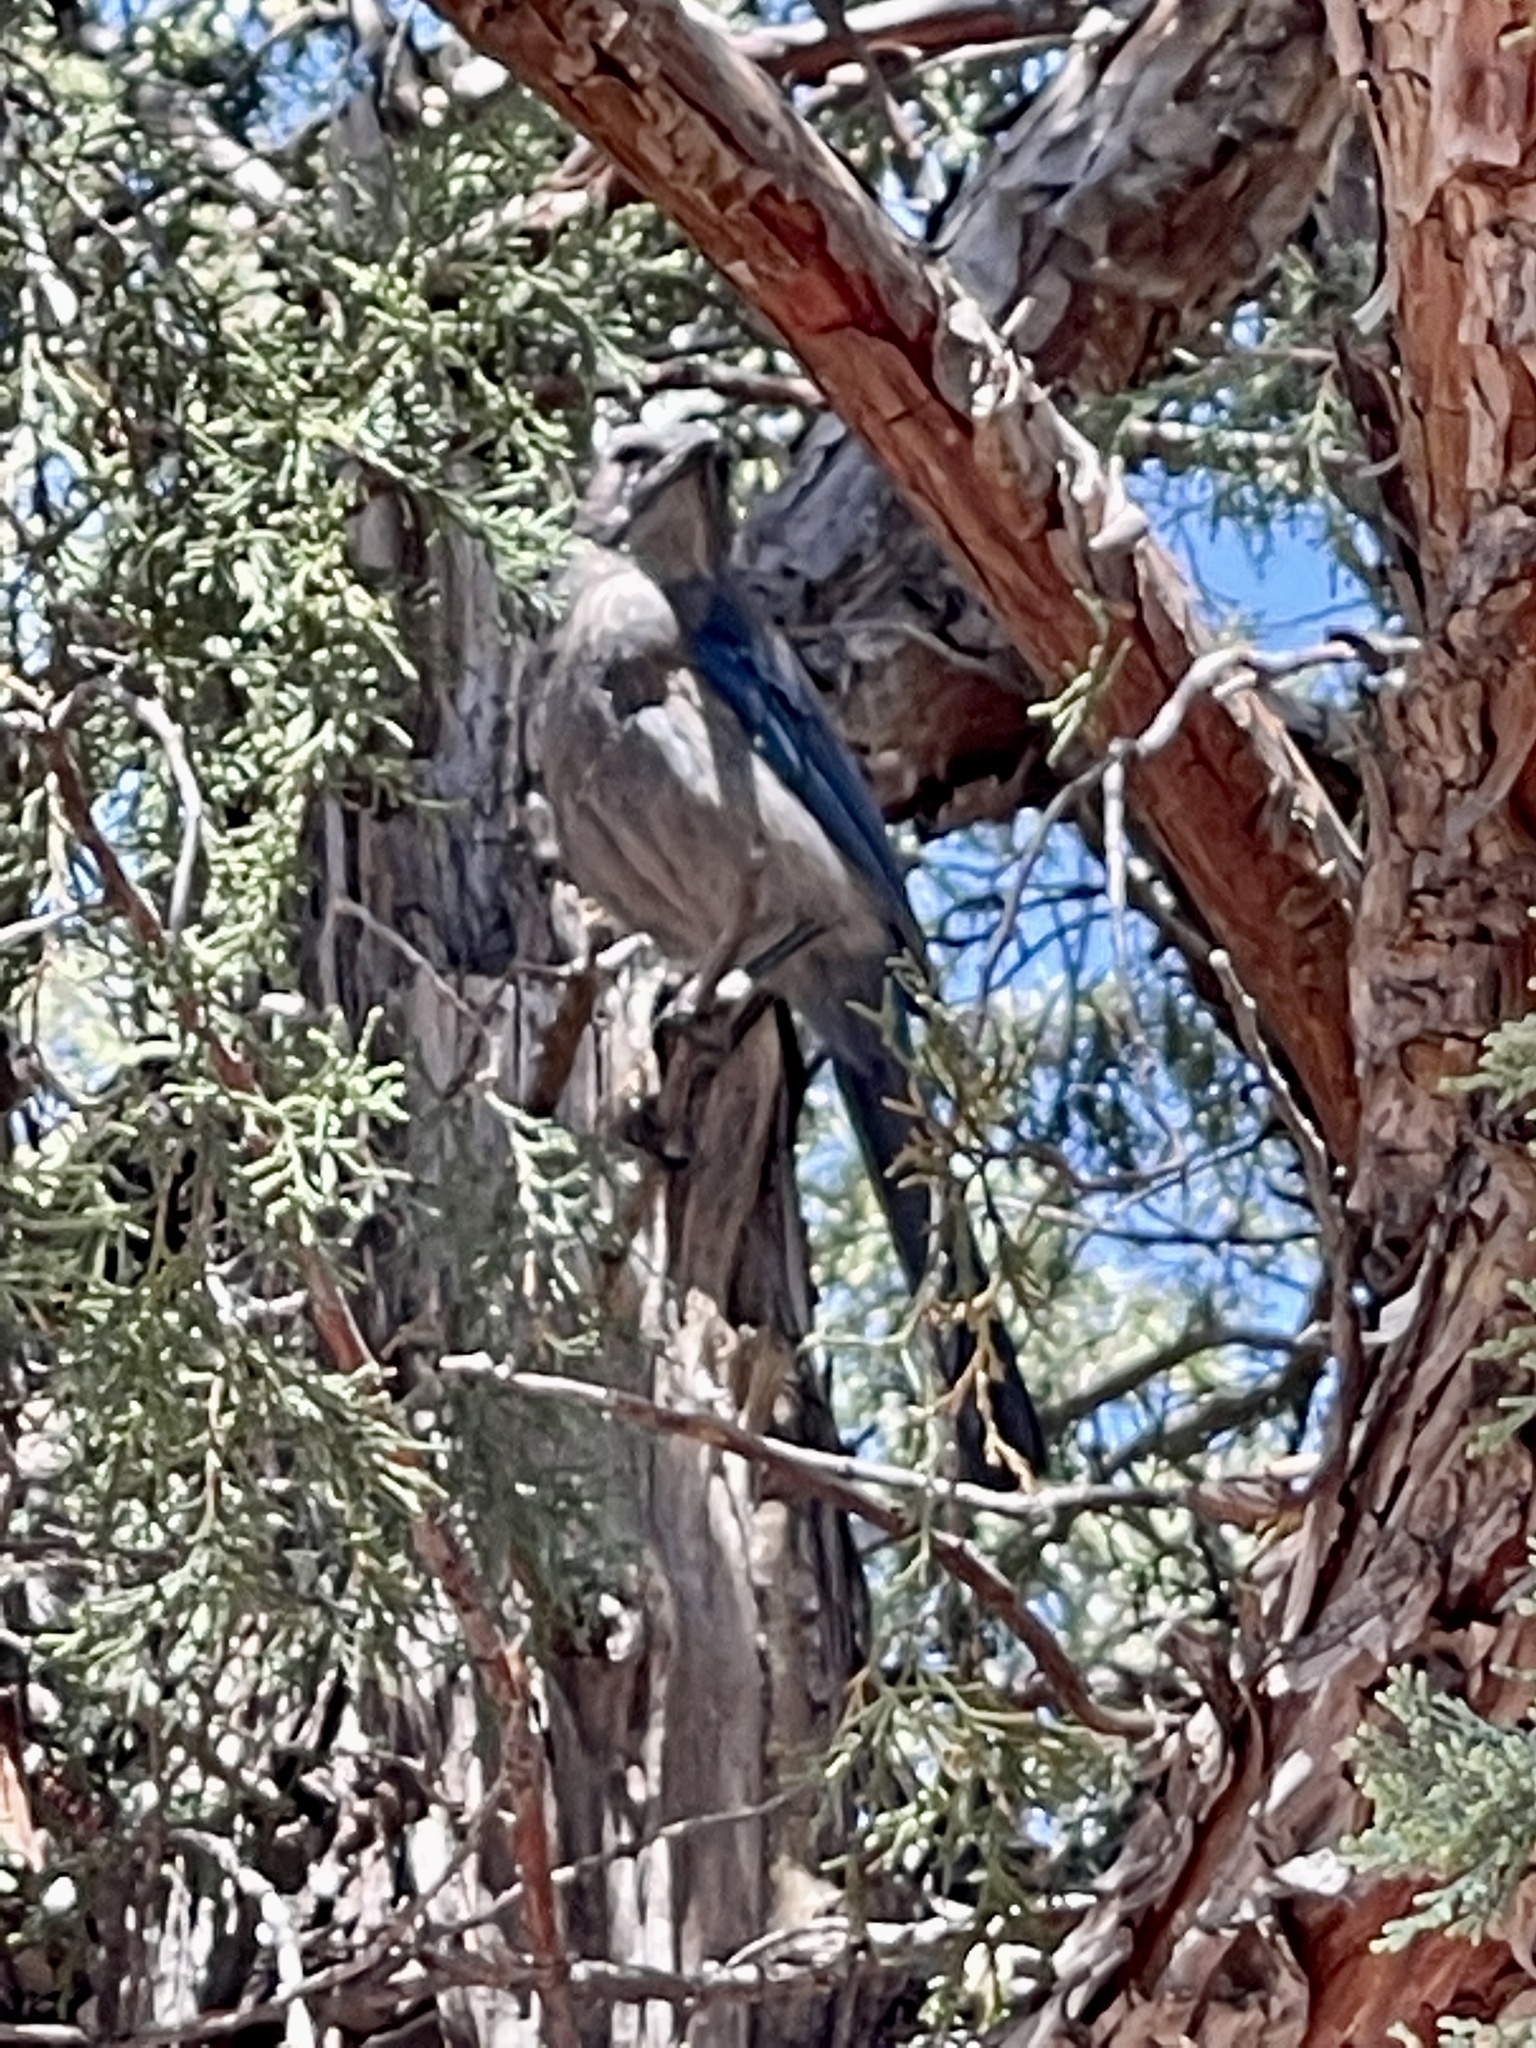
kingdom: Animalia
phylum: Chordata
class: Aves
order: Passeriformes
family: Corvidae
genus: Aphelocoma
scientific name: Aphelocoma woodhouseii
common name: Woodhouse's scrub-jay
